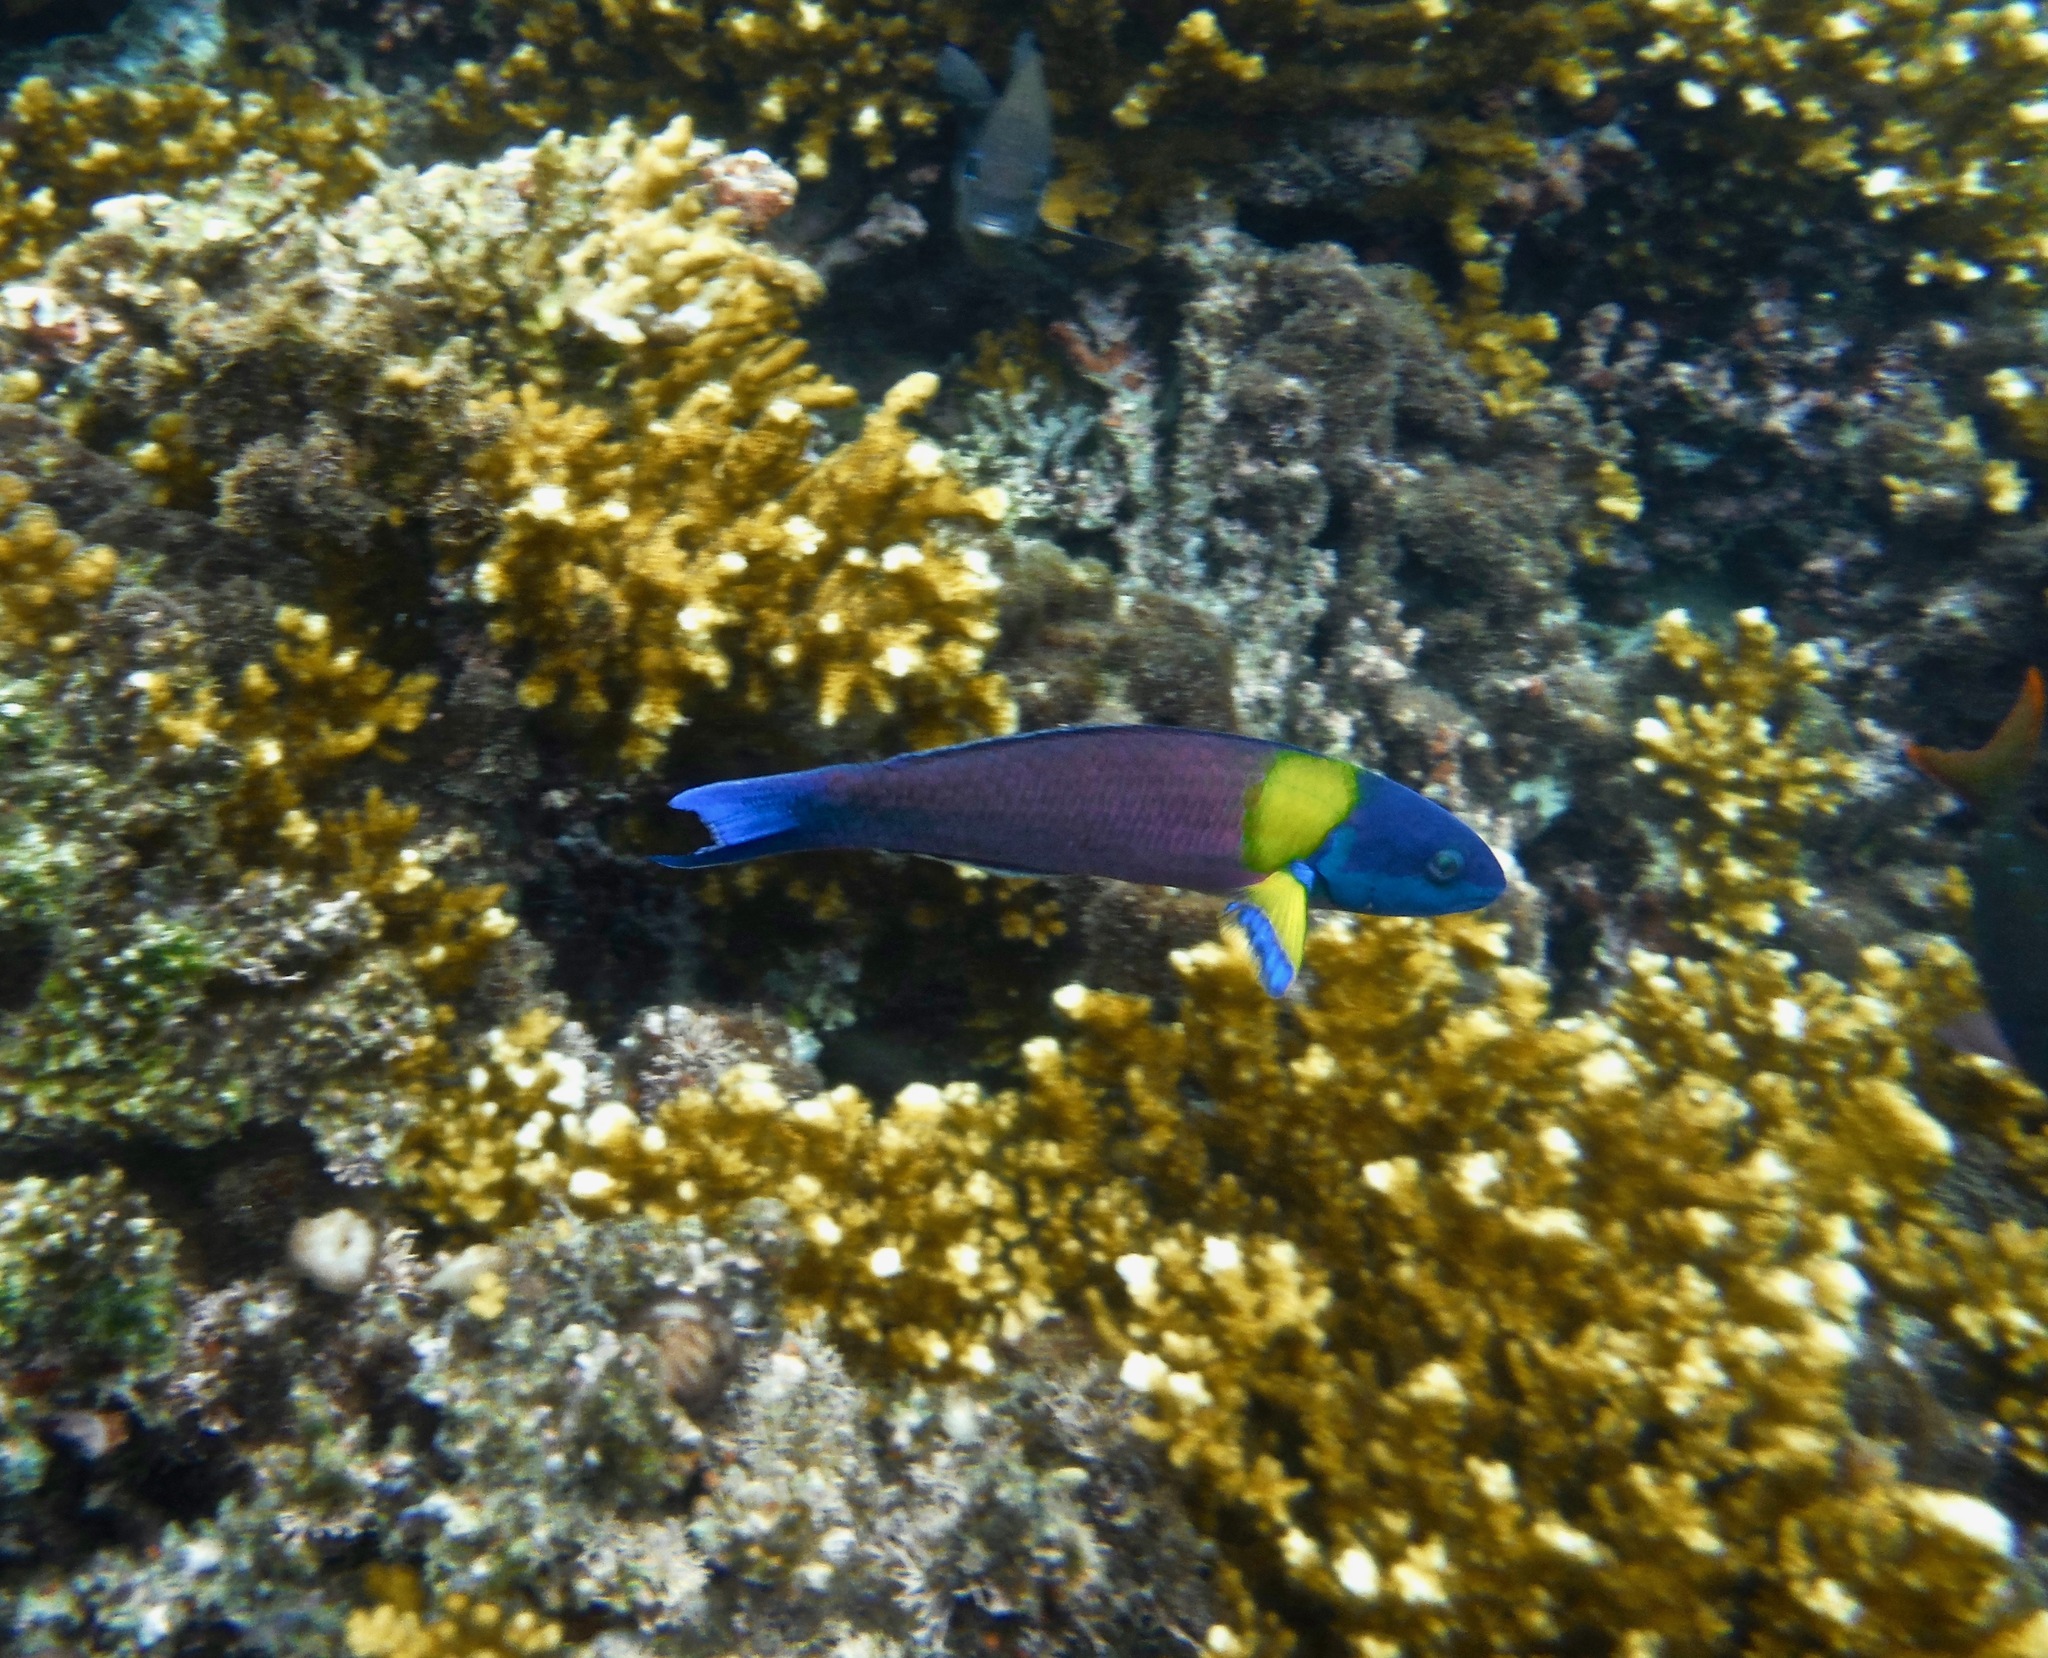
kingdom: Animalia
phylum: Chordata
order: Perciformes
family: Labridae
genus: Thalassoma
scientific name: Thalassoma lucasanum
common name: Cortez rainbow wrasse
